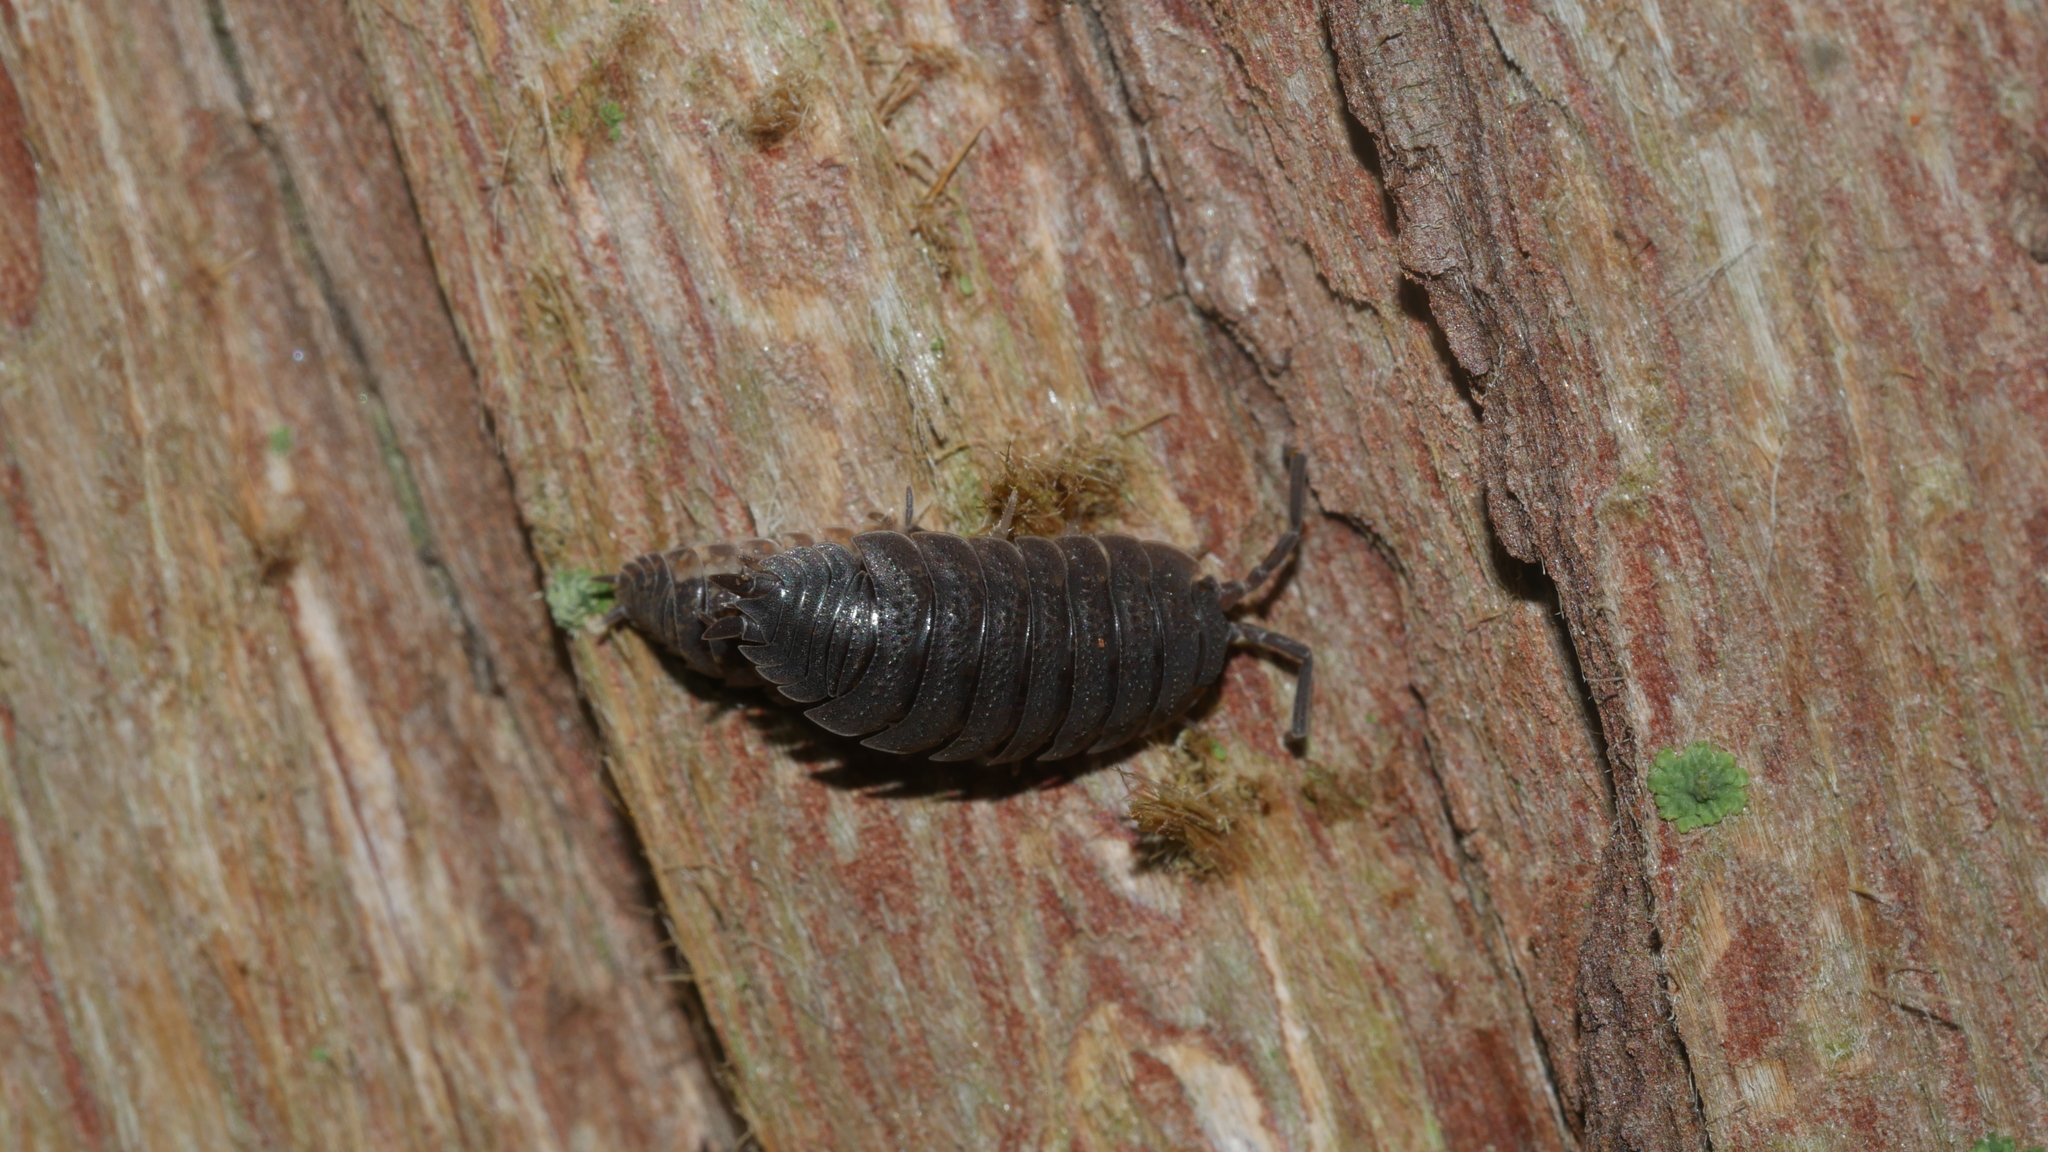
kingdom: Animalia
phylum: Arthropoda
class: Malacostraca
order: Isopoda
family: Porcellionidae
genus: Porcellio
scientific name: Porcellio scaber
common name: Common rough woodlouse
